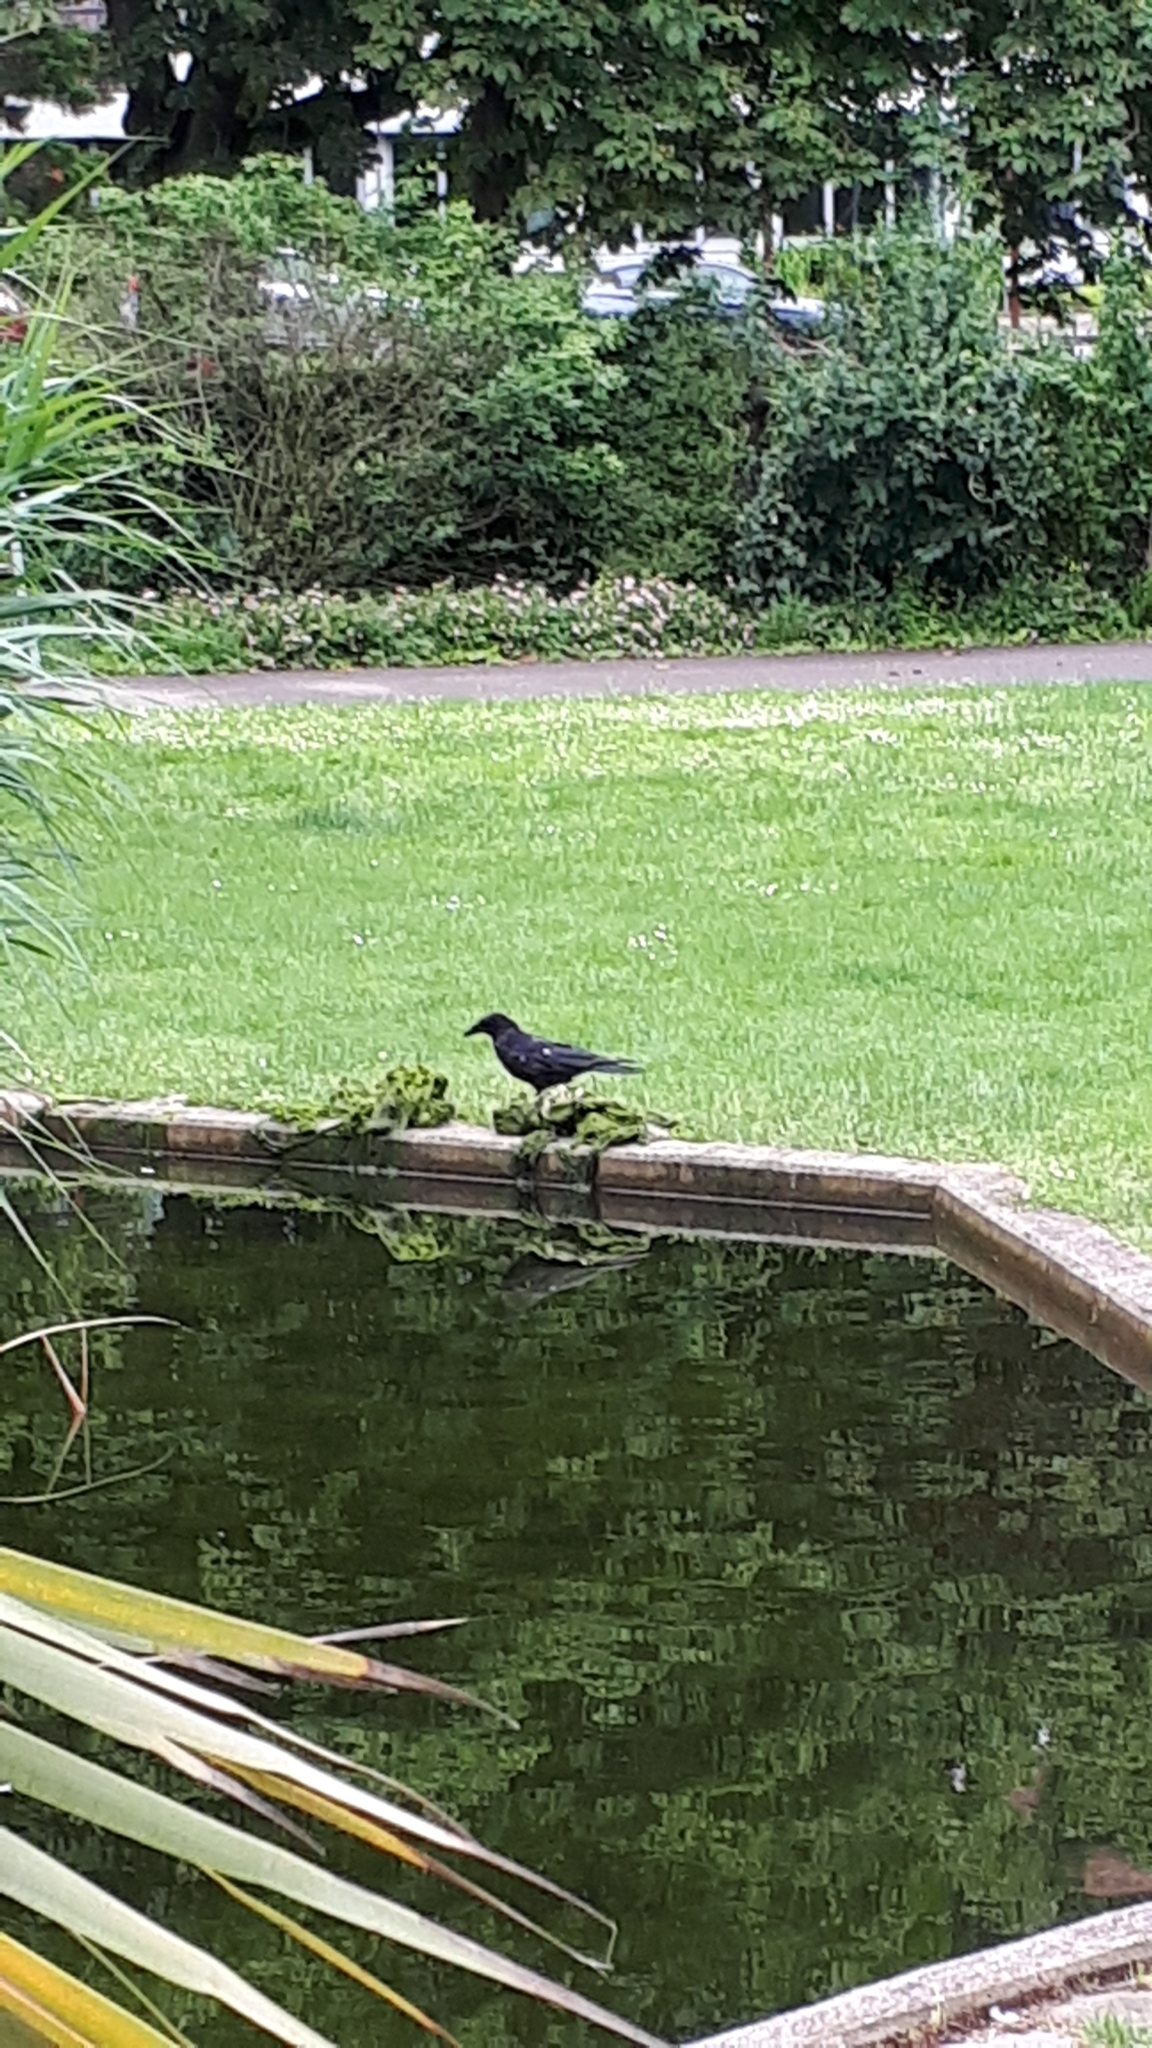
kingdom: Animalia
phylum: Chordata
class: Aves
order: Passeriformes
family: Corvidae
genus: Corvus
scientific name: Corvus corone
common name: Carrion crow
